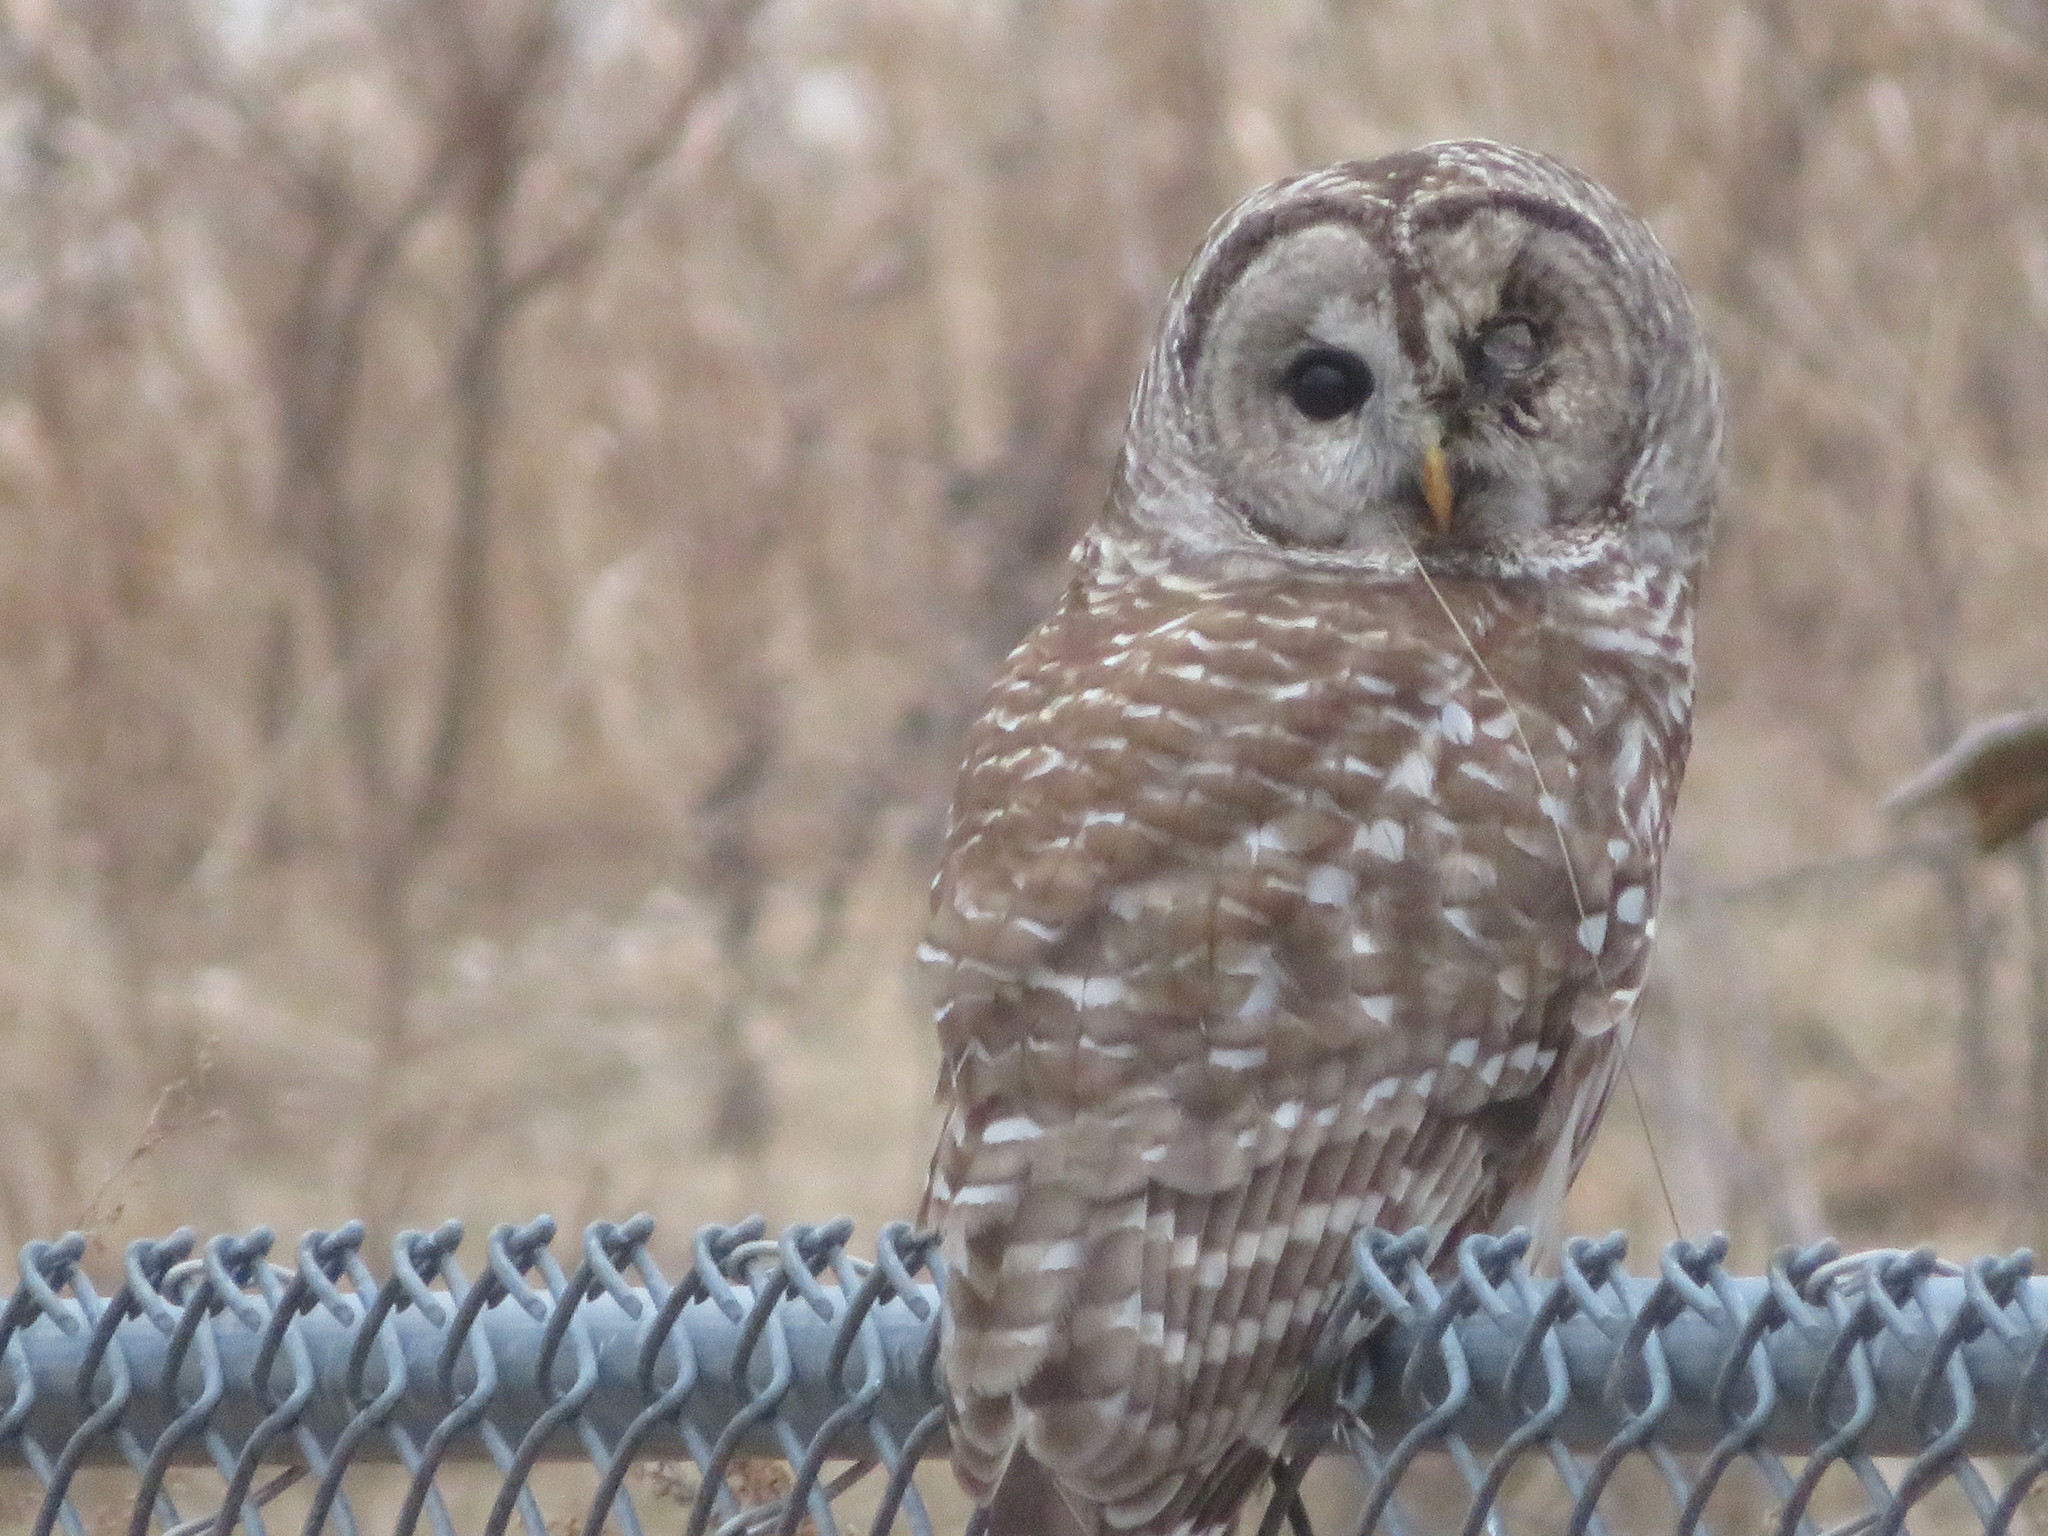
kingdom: Animalia
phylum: Chordata
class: Aves
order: Strigiformes
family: Strigidae
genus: Strix
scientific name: Strix varia
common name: Barred owl
